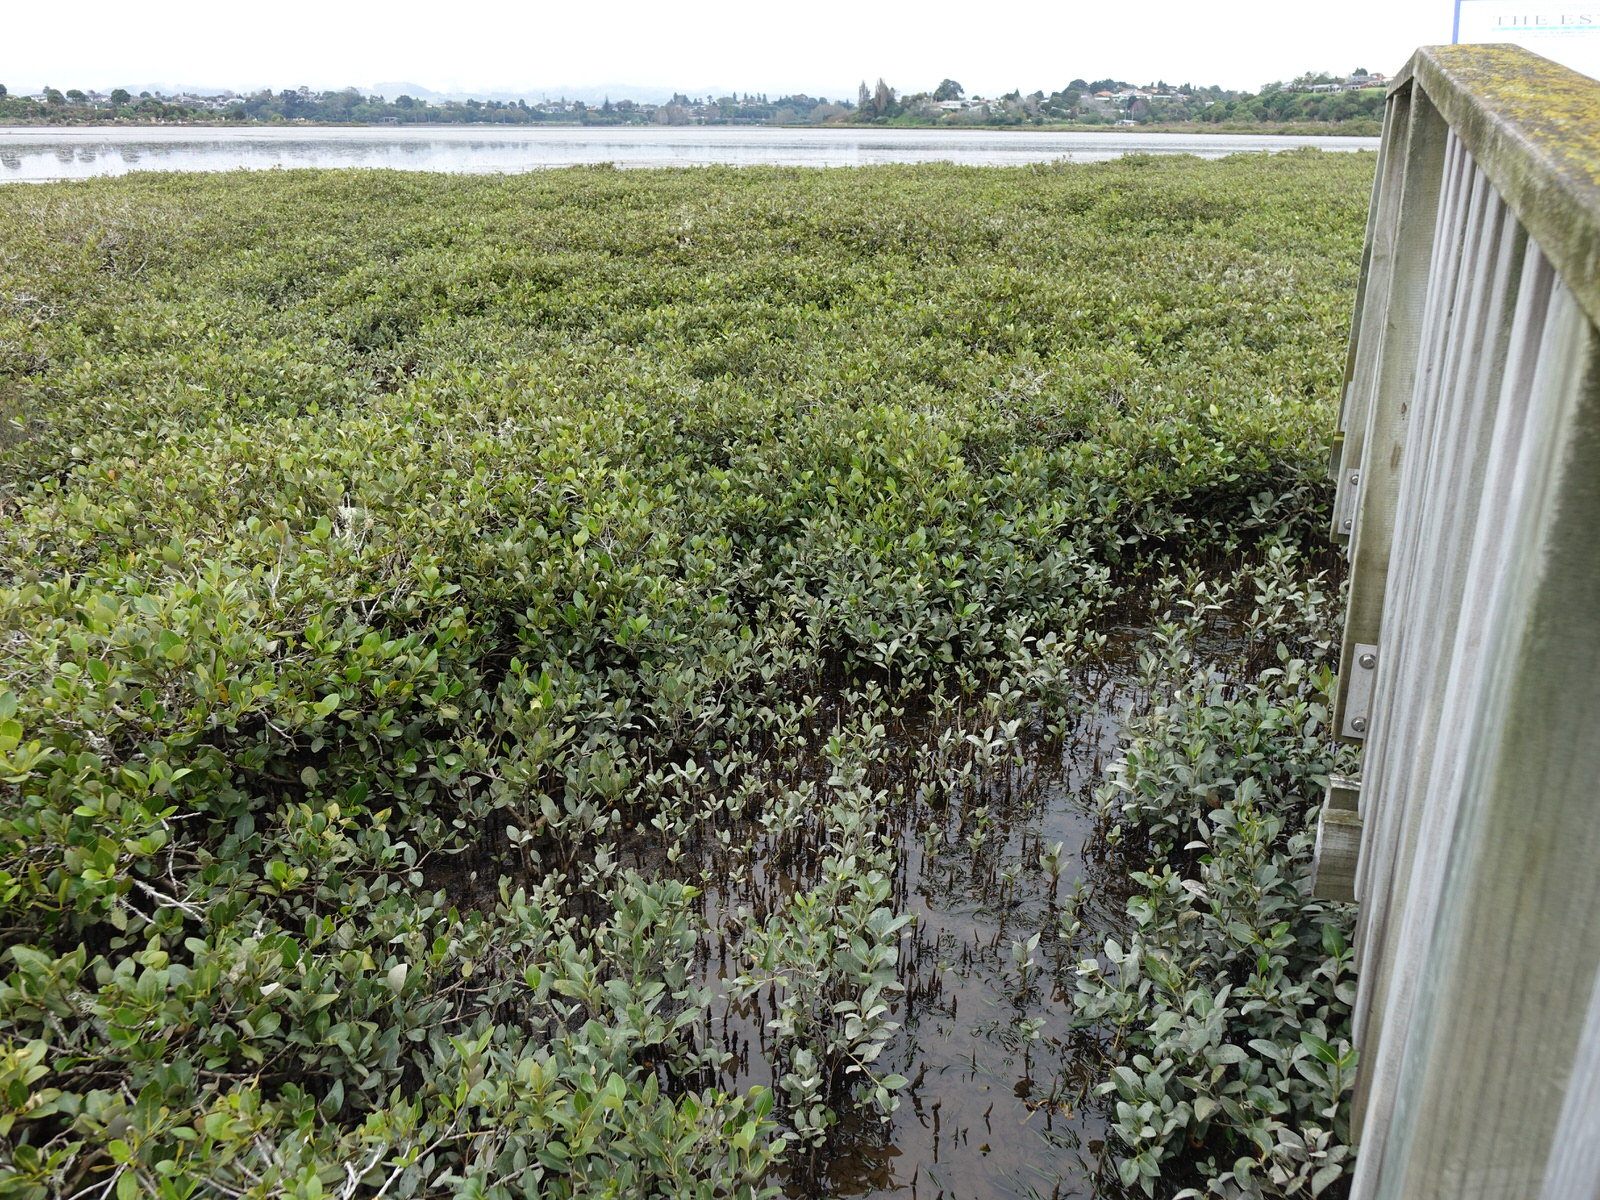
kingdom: Plantae
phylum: Tracheophyta
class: Liliopsida
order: Alismatales
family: Zosteraceae
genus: Zostera
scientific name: Zostera novazelandica
